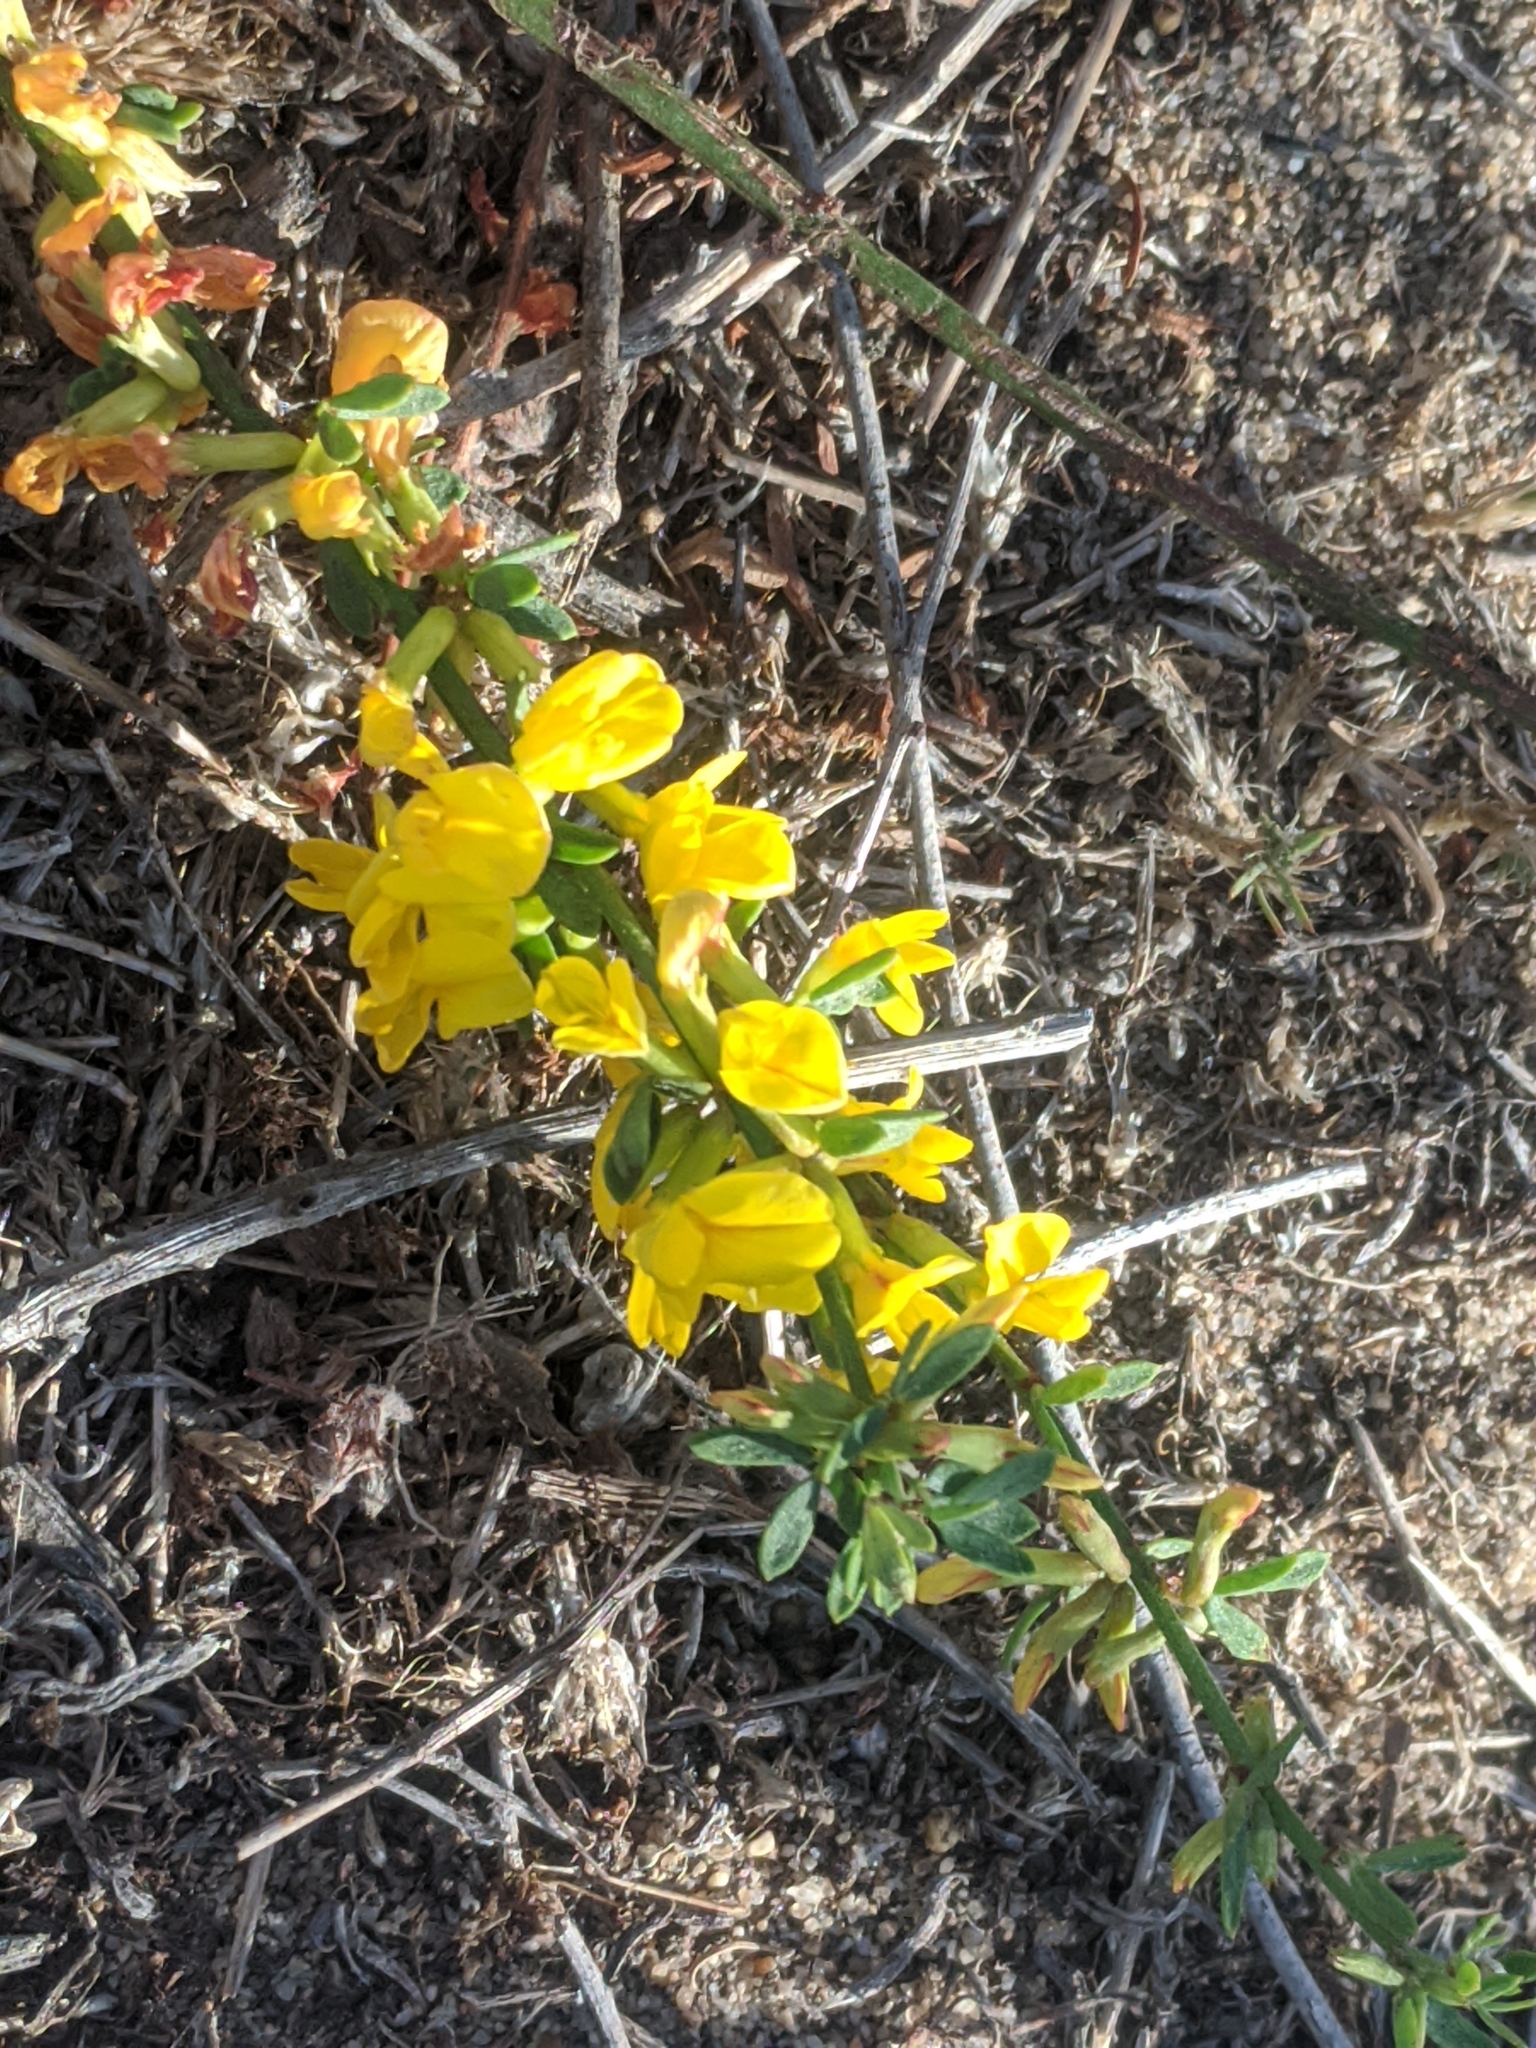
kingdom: Plantae
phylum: Tracheophyta
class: Magnoliopsida
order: Fabales
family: Fabaceae
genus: Acmispon
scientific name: Acmispon glaber
